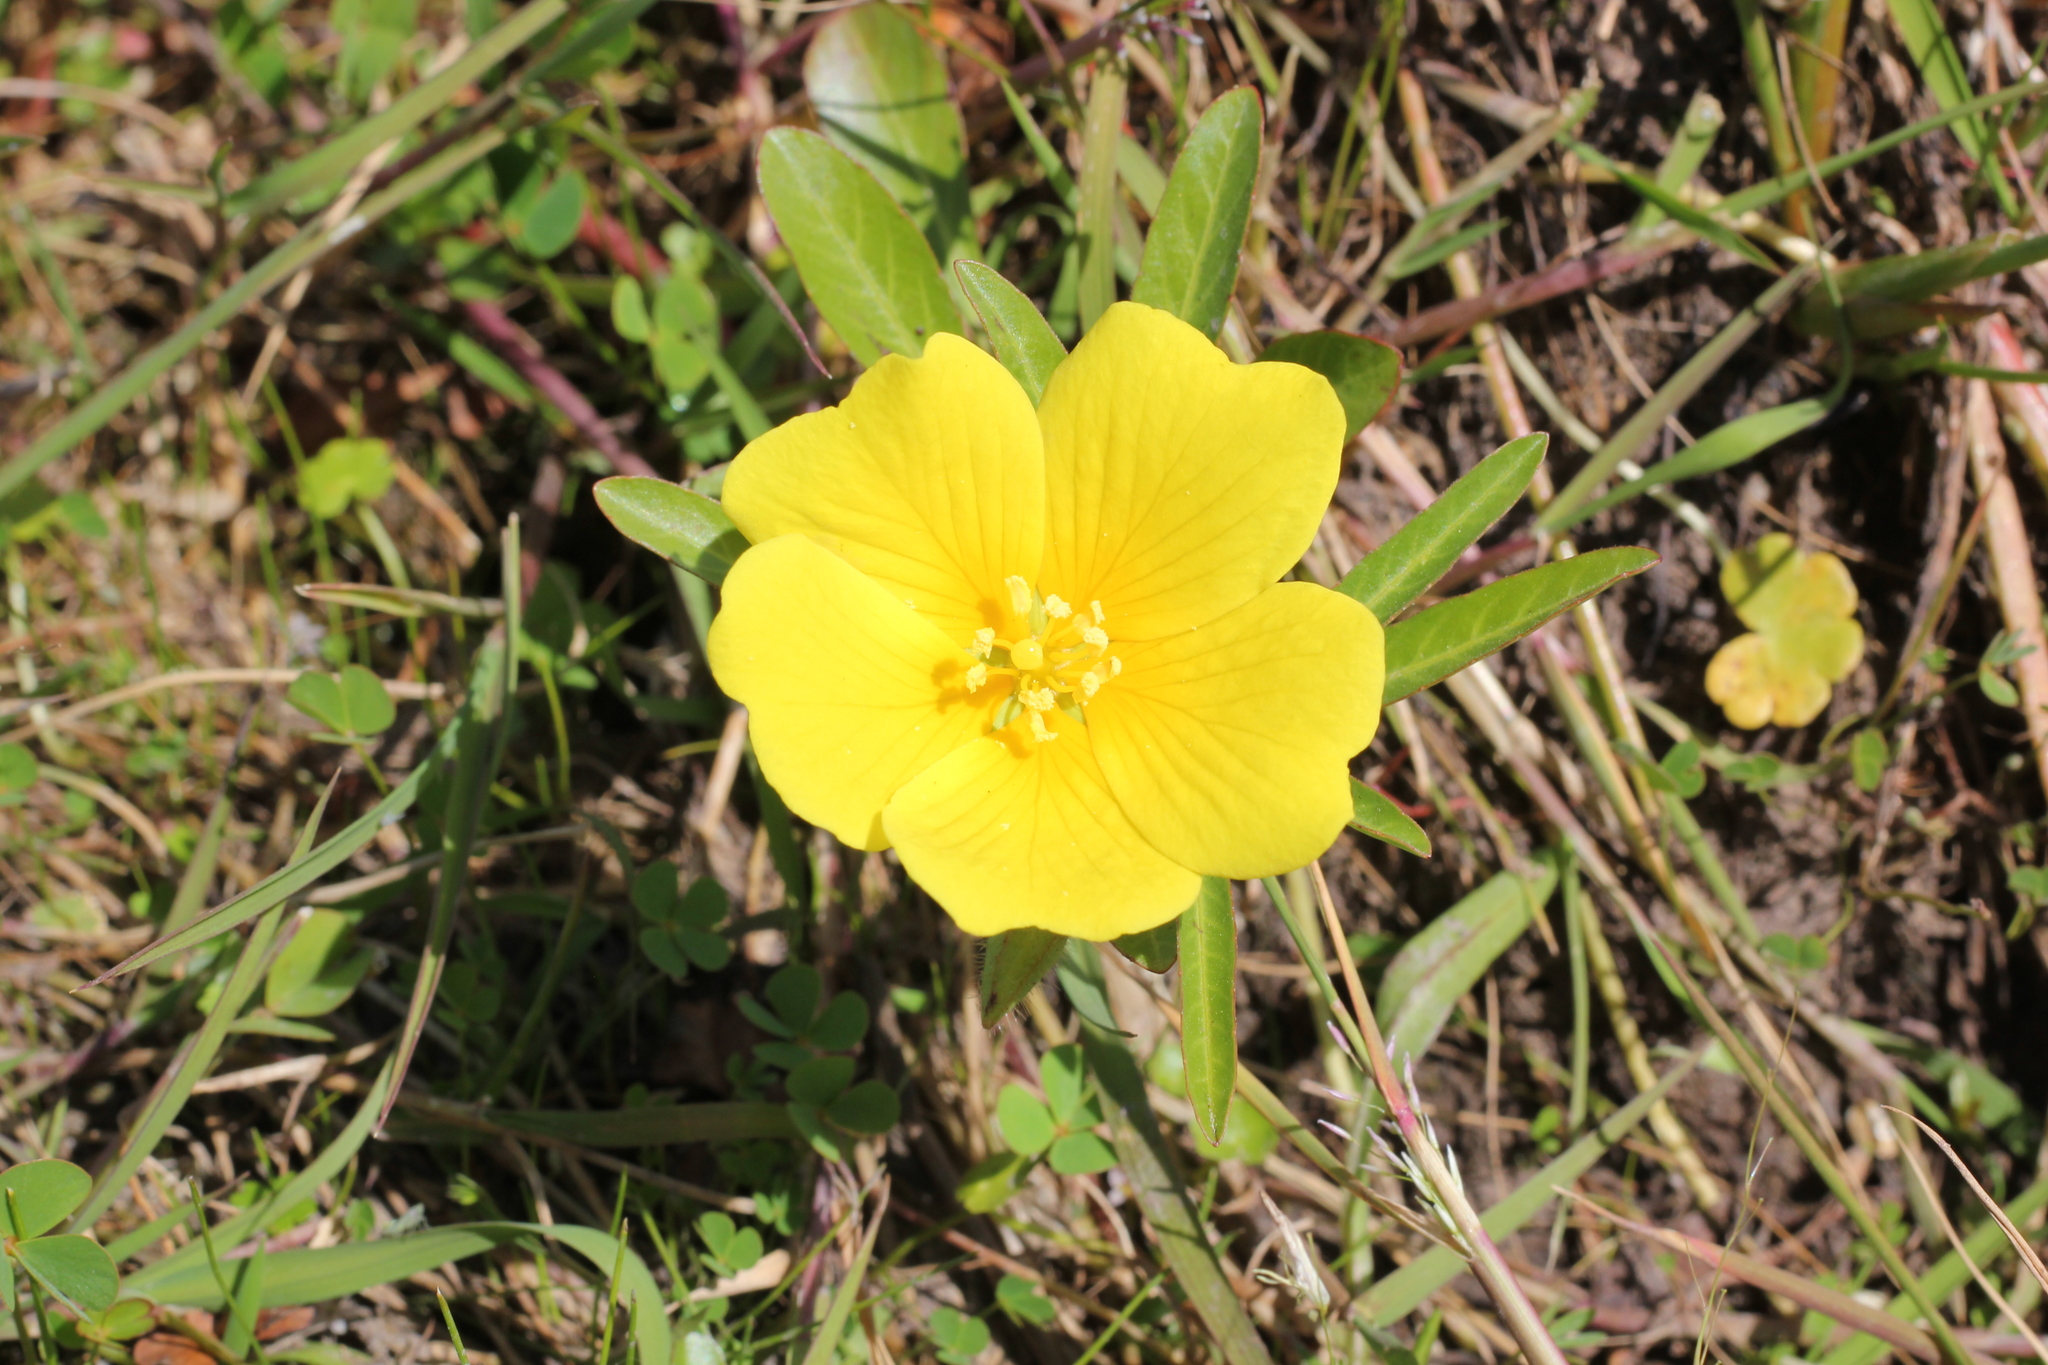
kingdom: Plantae
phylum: Tracheophyta
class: Magnoliopsida
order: Myrtales
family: Onagraceae
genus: Ludwigia
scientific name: Ludwigia peploides
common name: Floating primrose-willow
